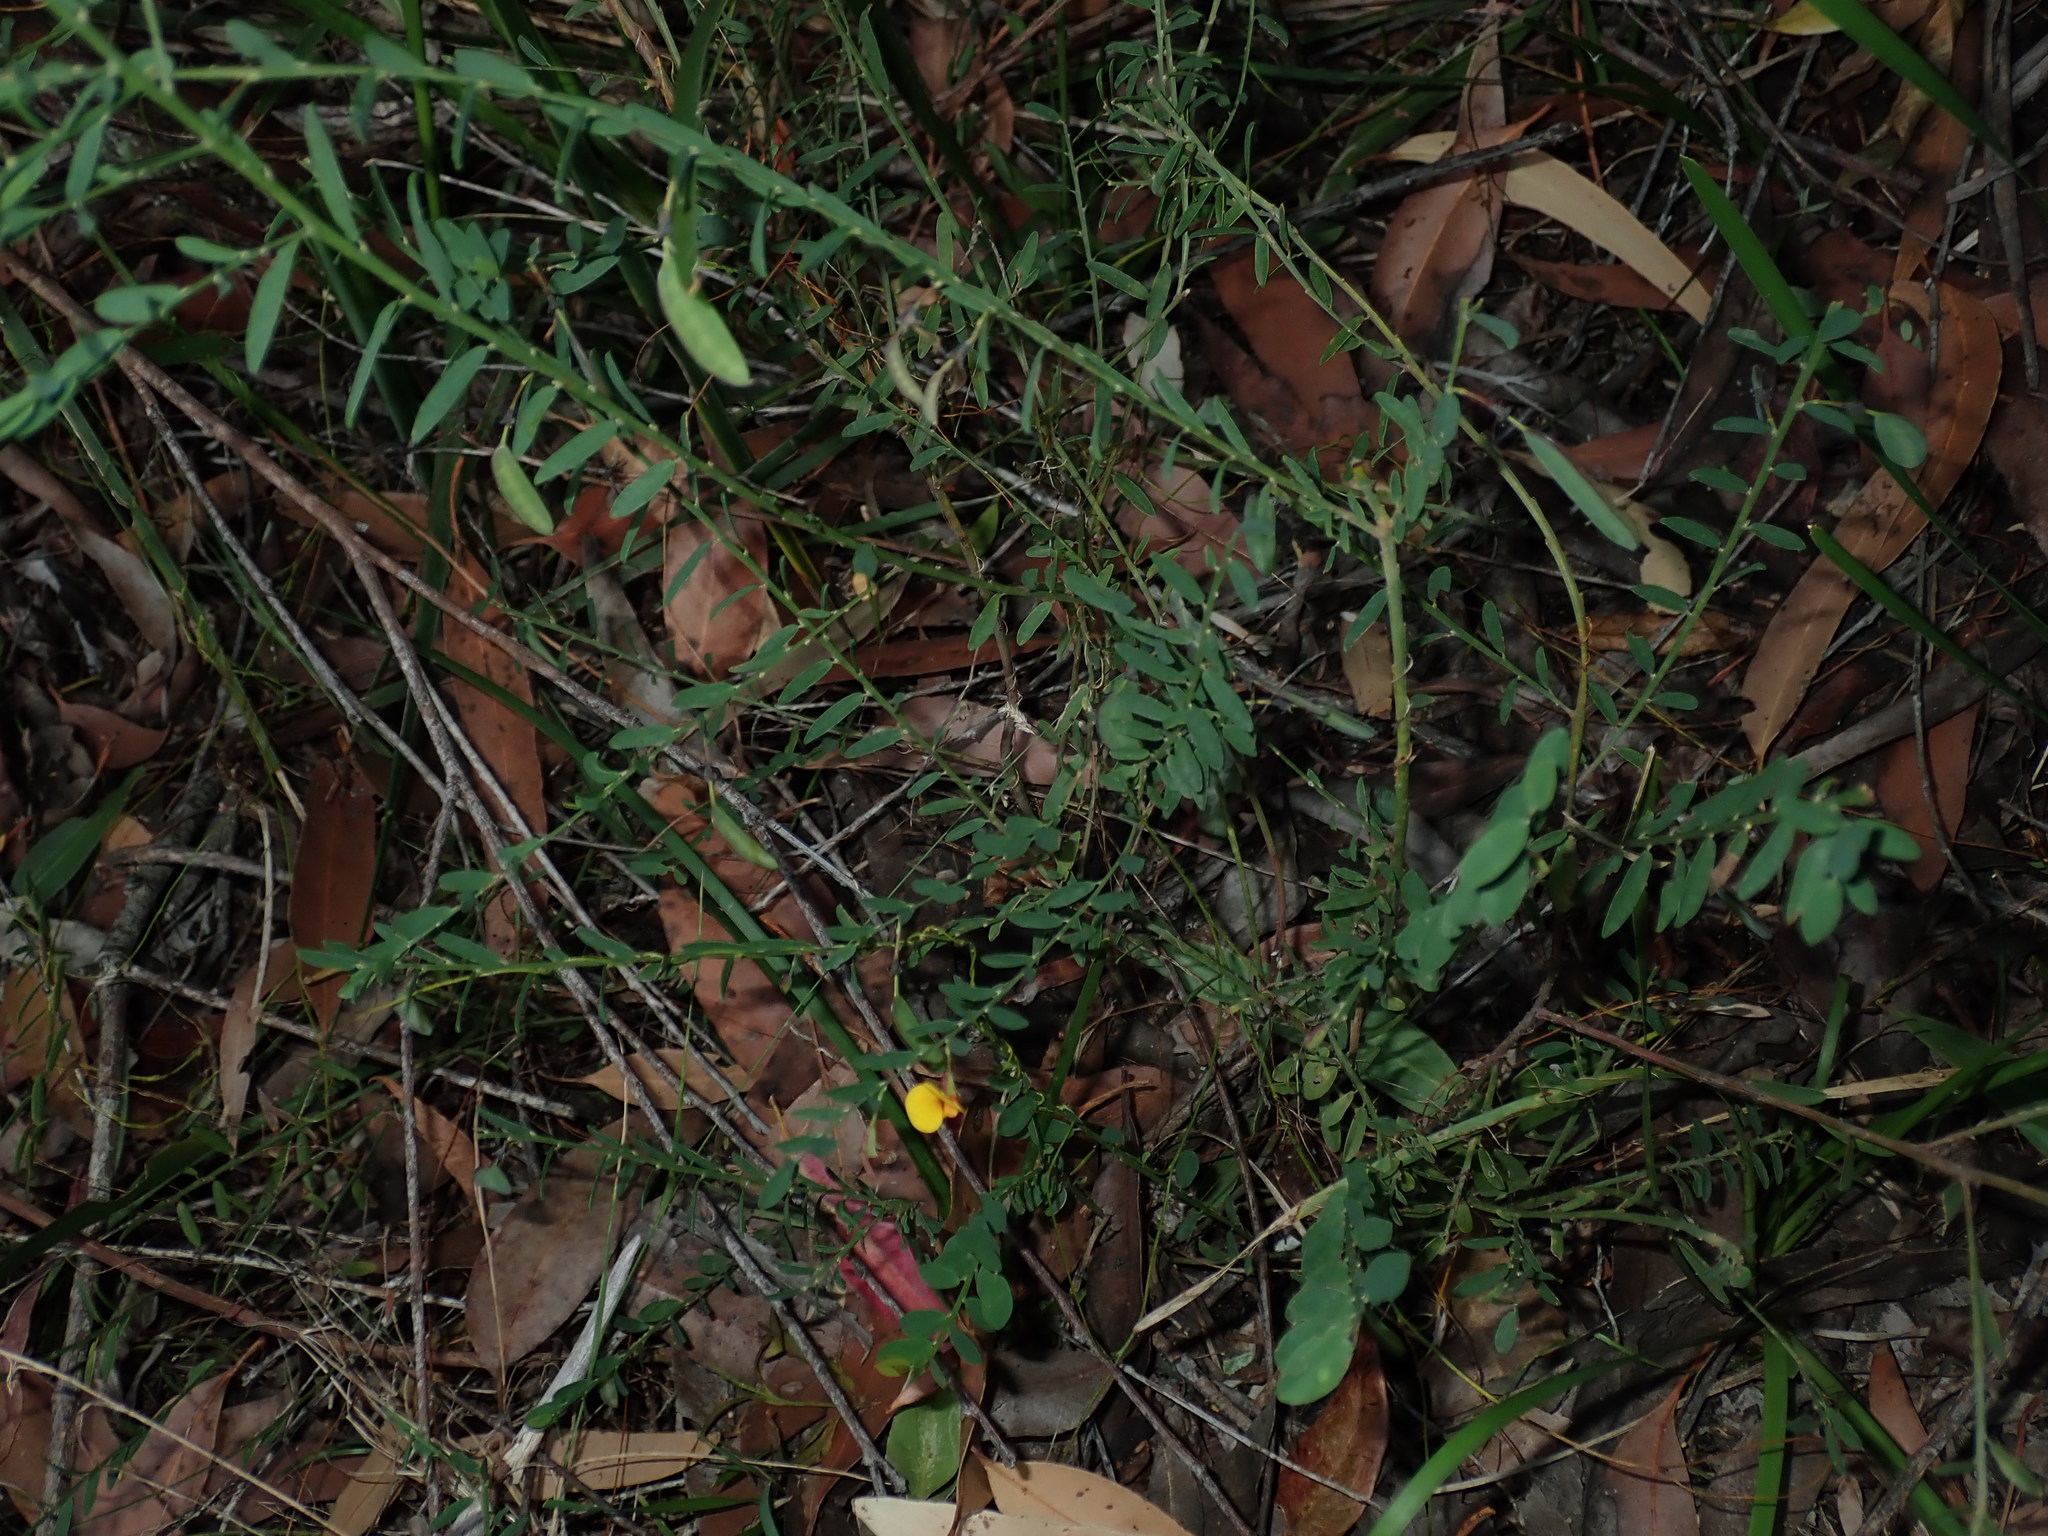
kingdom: Plantae
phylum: Tracheophyta
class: Magnoliopsida
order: Fabales
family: Fabaceae
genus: Bossiaea
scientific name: Bossiaea heterophylla
